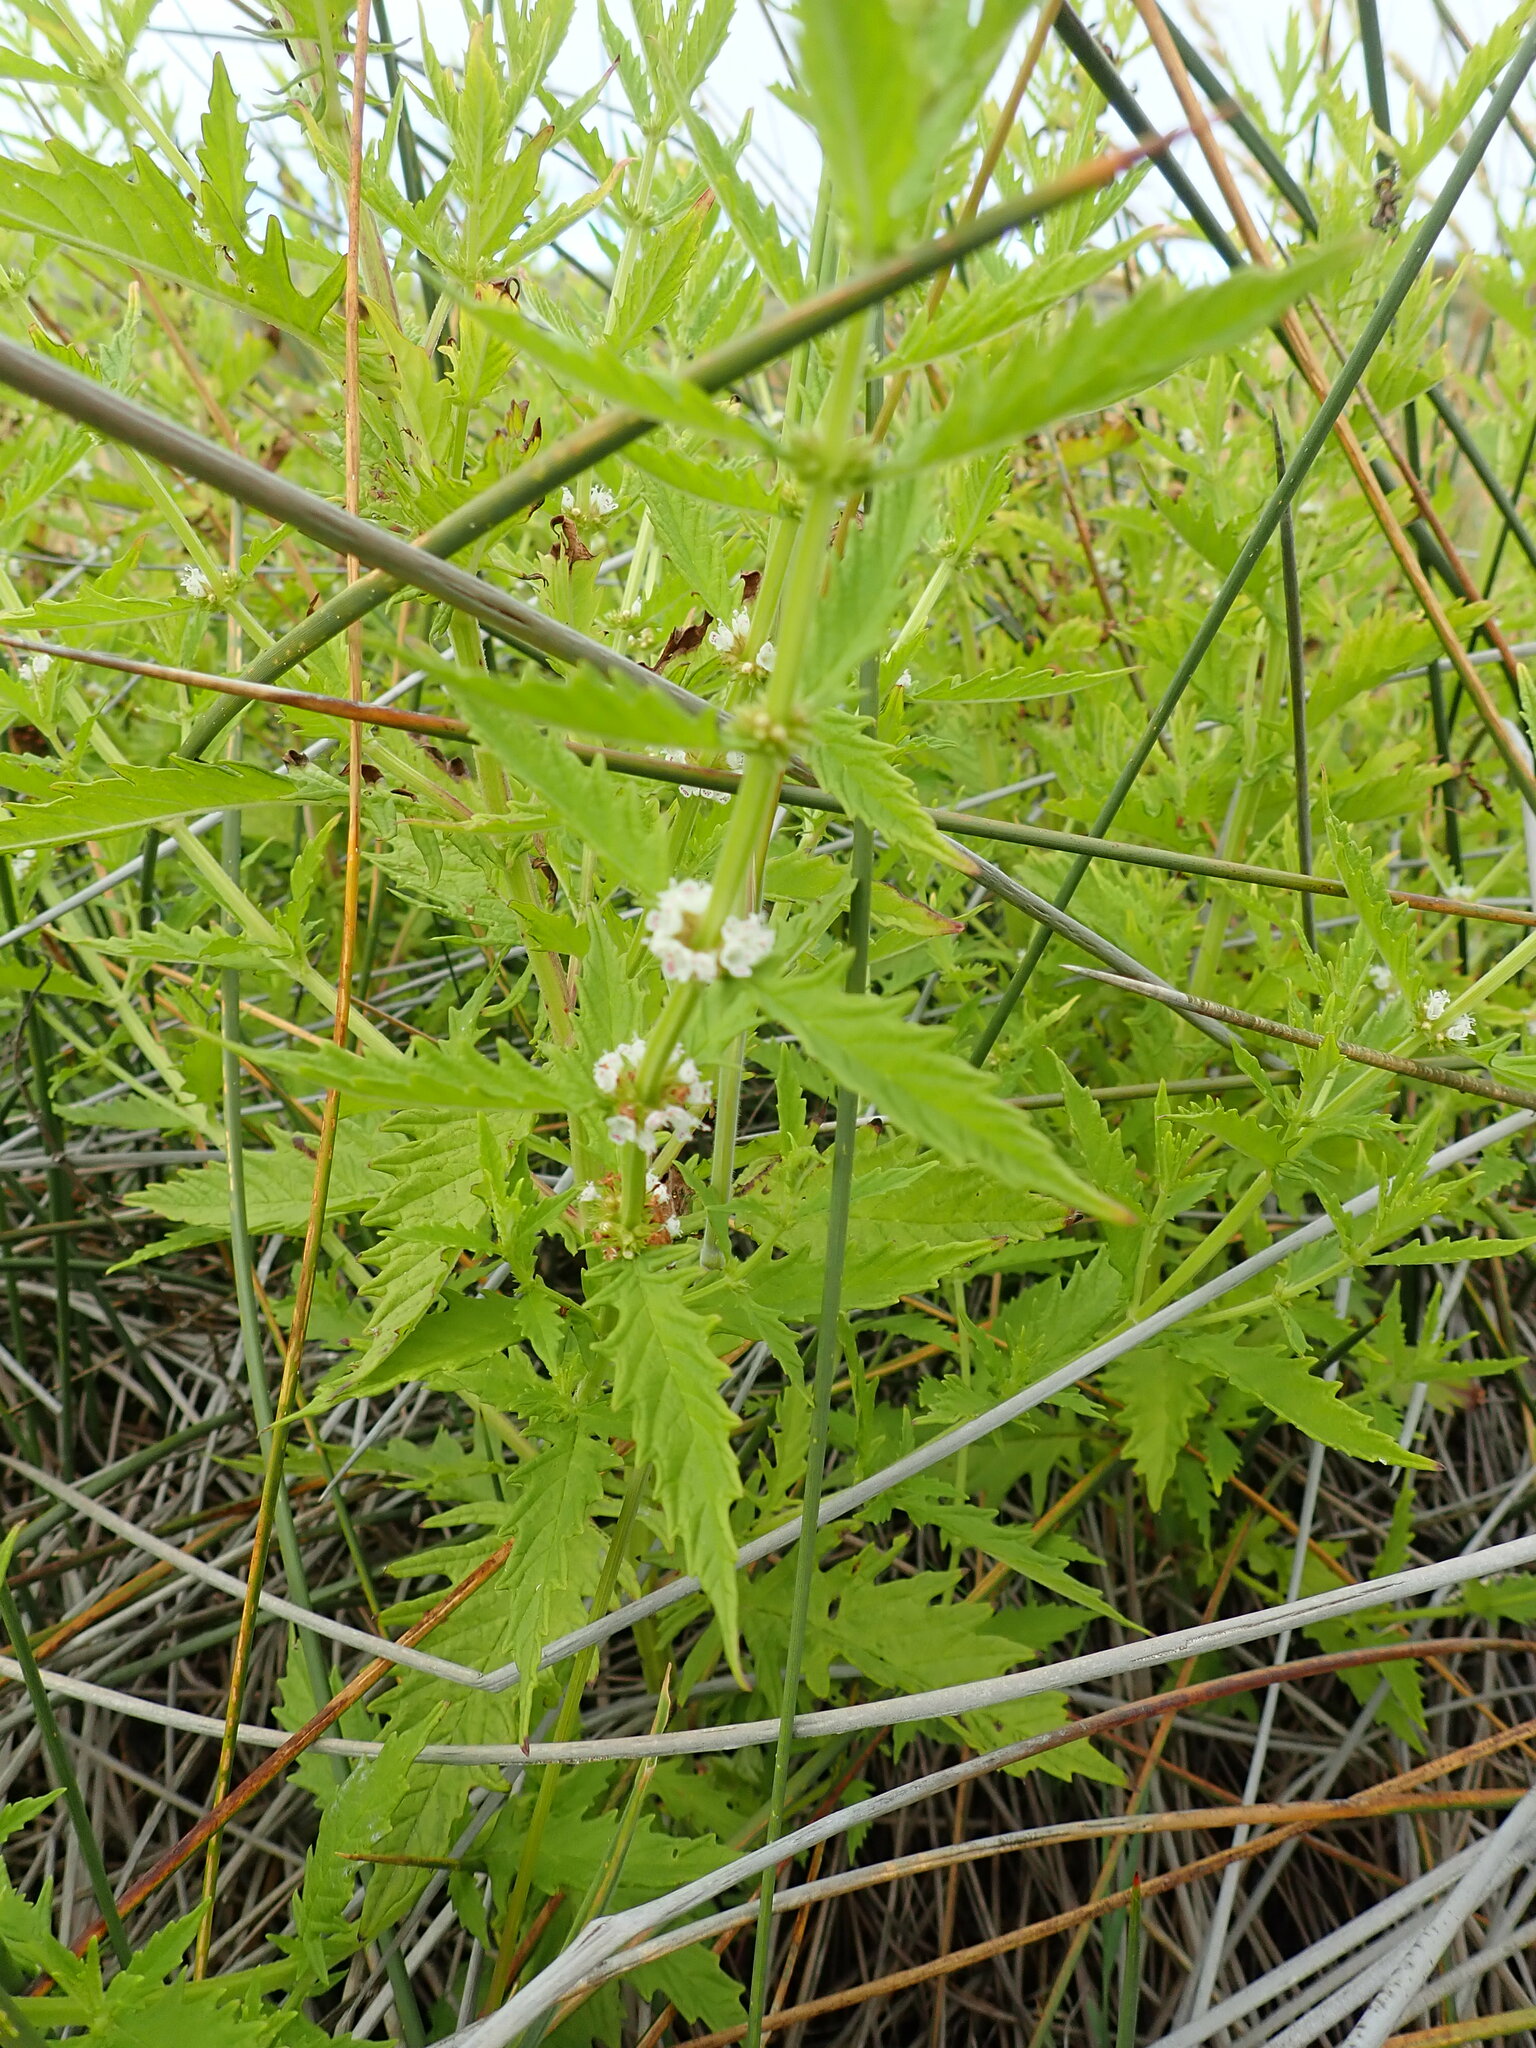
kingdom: Plantae
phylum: Tracheophyta
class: Magnoliopsida
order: Lamiales
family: Lamiaceae
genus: Lycopus
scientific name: Lycopus europaeus
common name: European bugleweed
